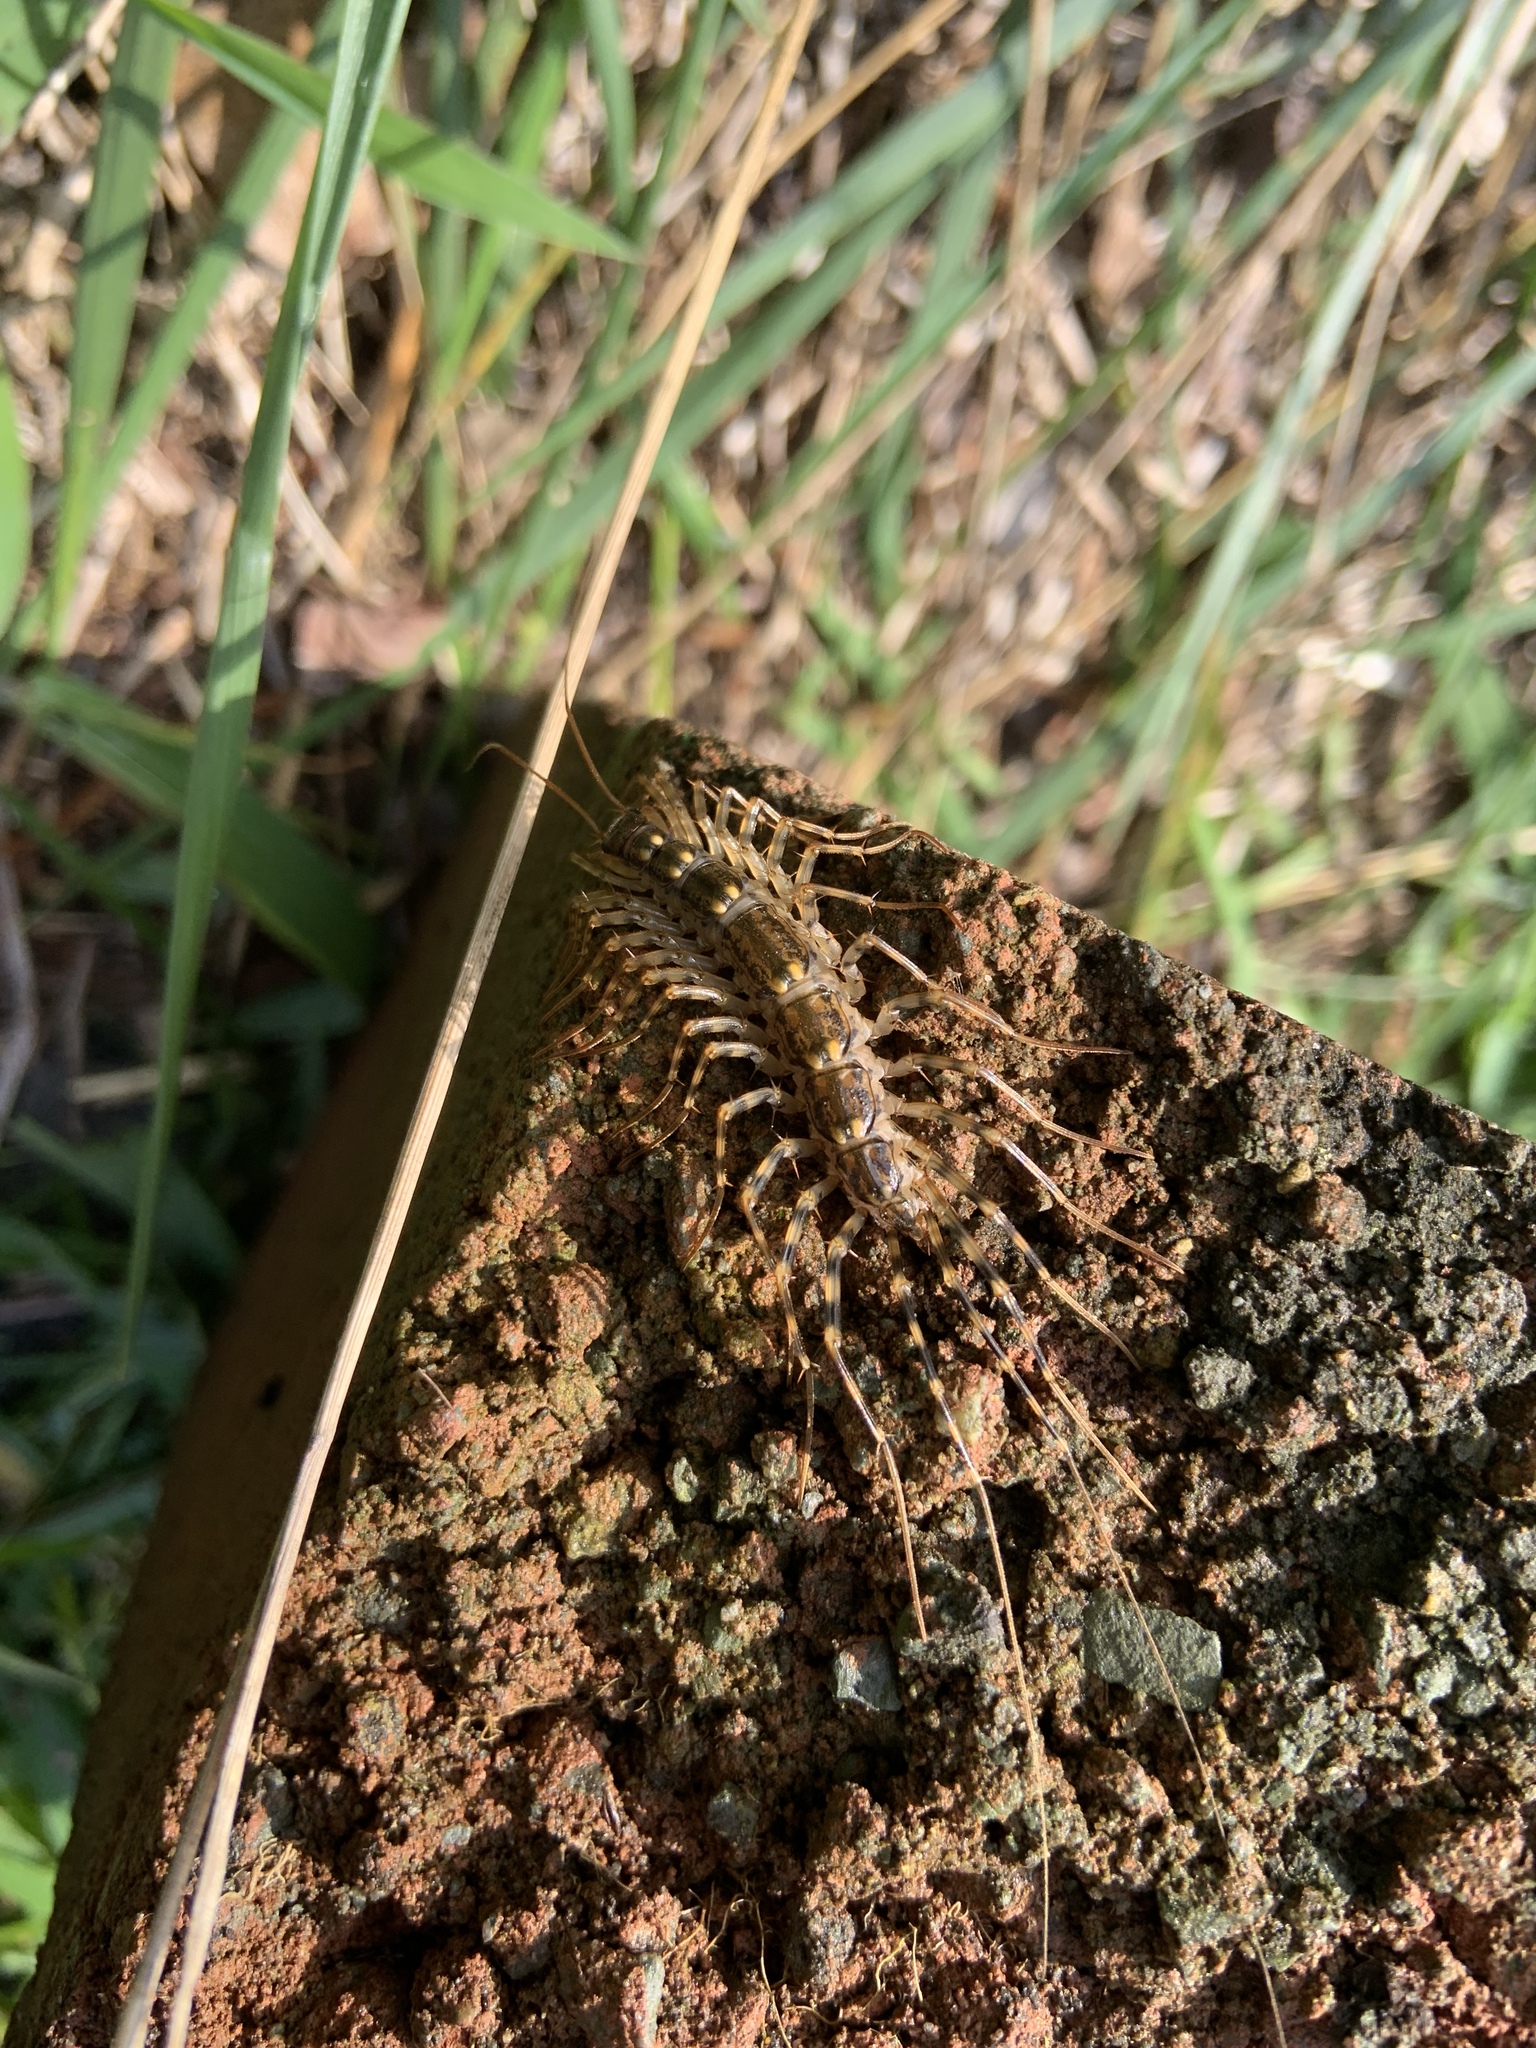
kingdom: Animalia
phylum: Arthropoda
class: Chilopoda
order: Scutigeromorpha
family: Scutigeridae
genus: Scutigera
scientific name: Scutigera coleoptrata
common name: House centipede
